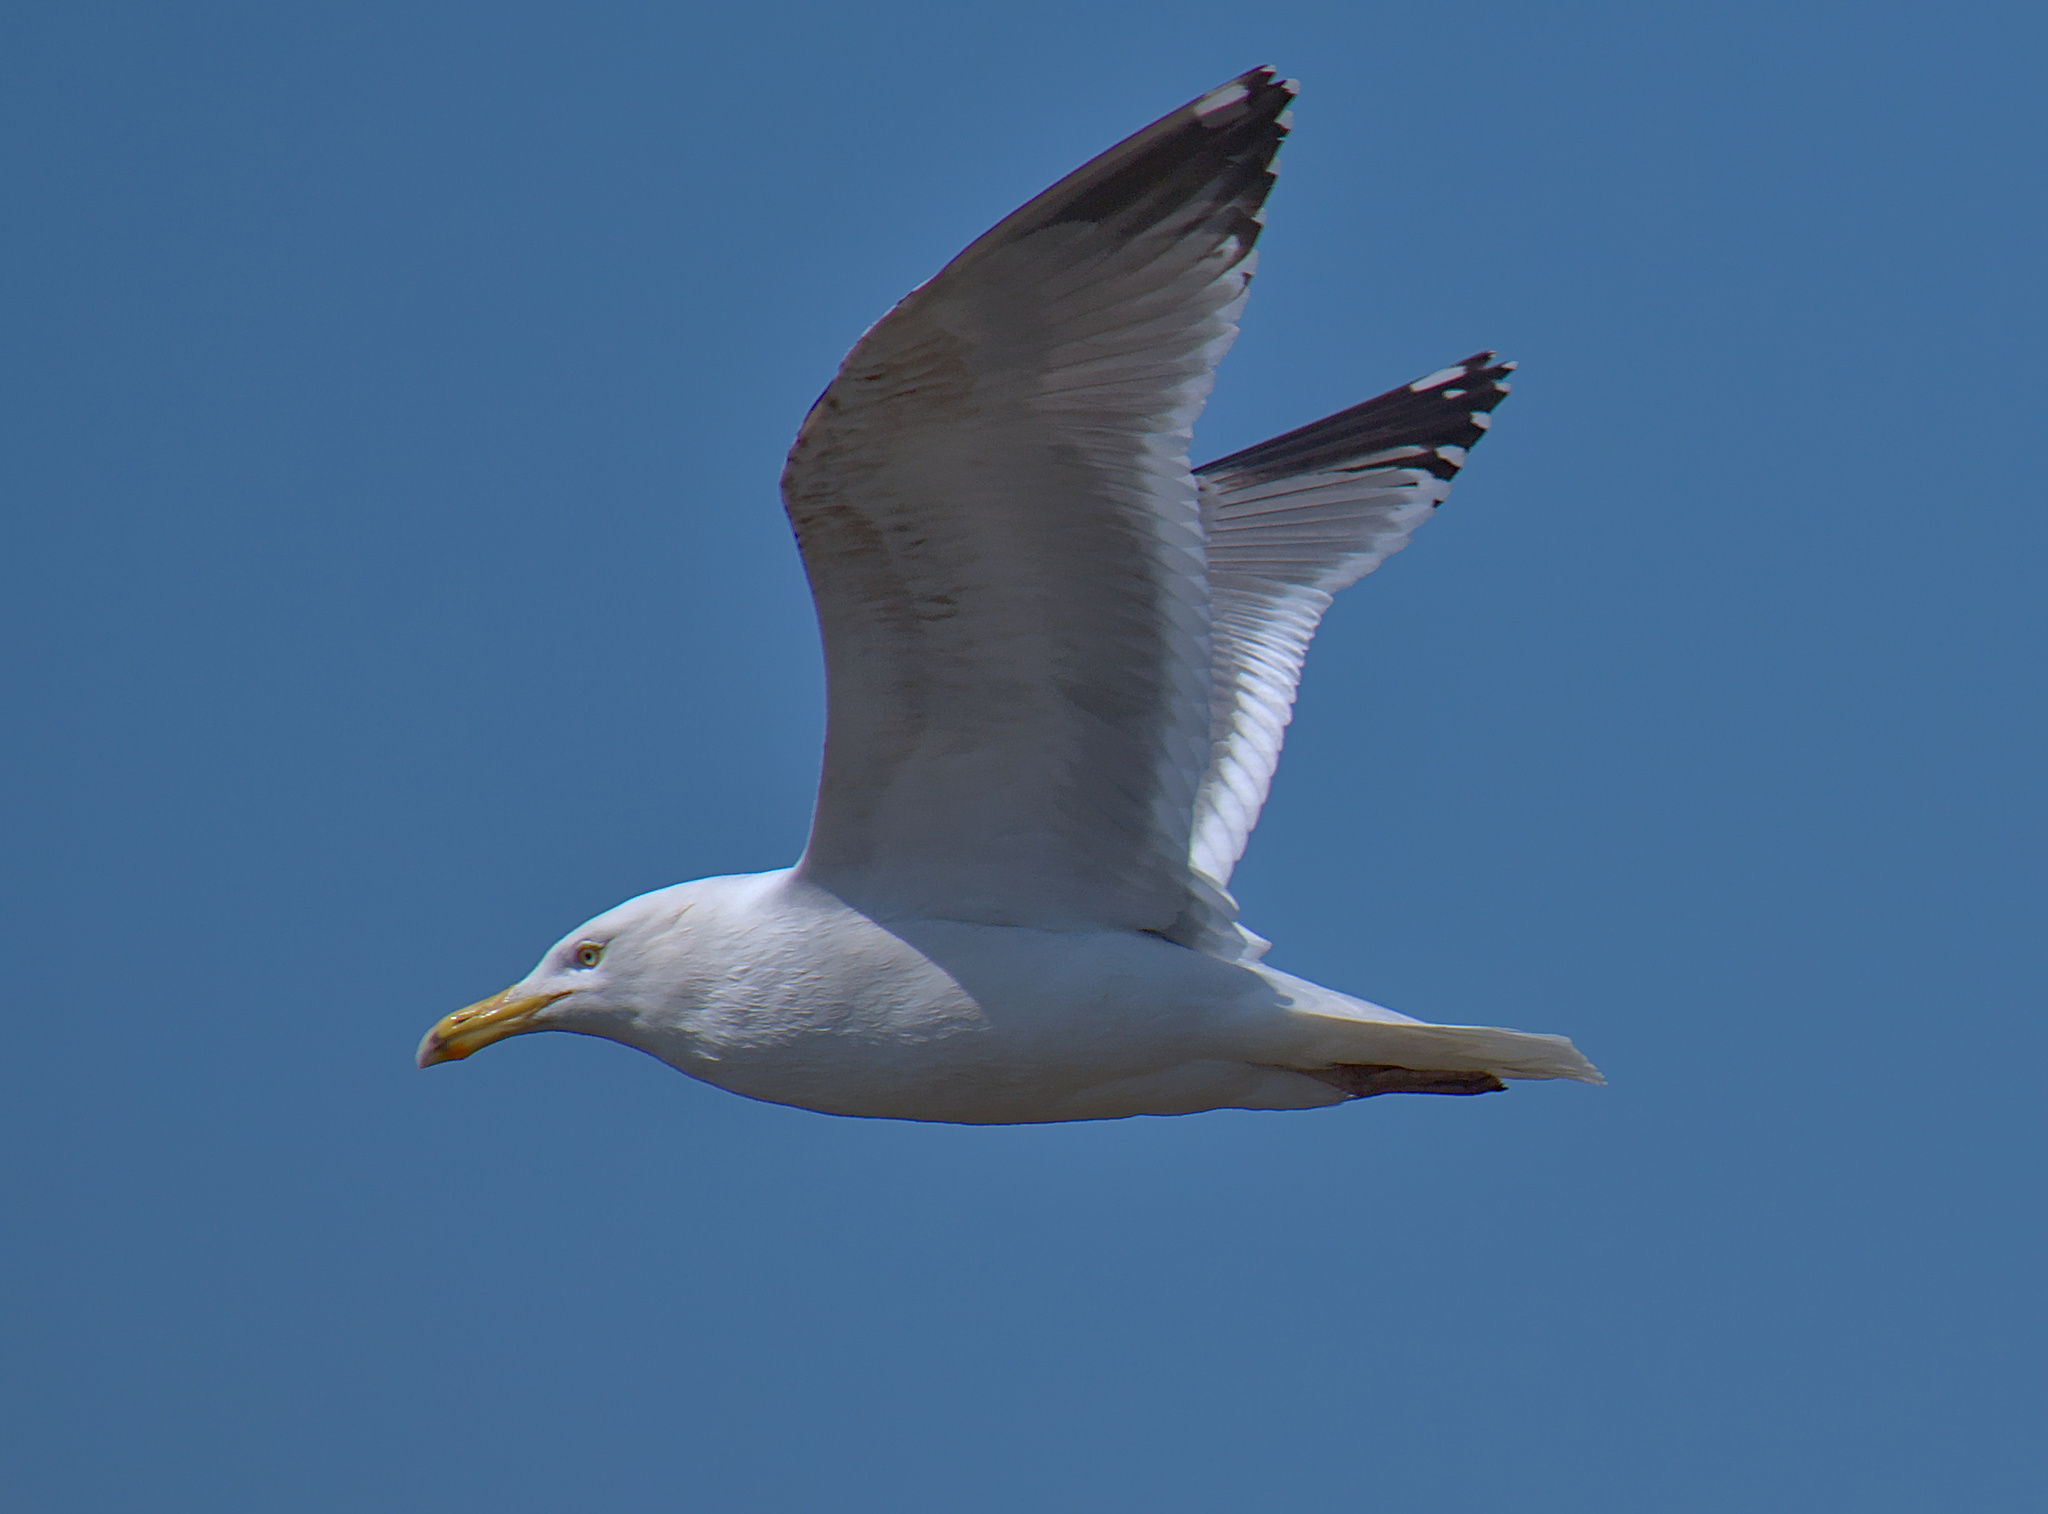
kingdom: Animalia
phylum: Chordata
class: Aves
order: Charadriiformes
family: Laridae
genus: Larus
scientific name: Larus argentatus
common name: Herring gull
